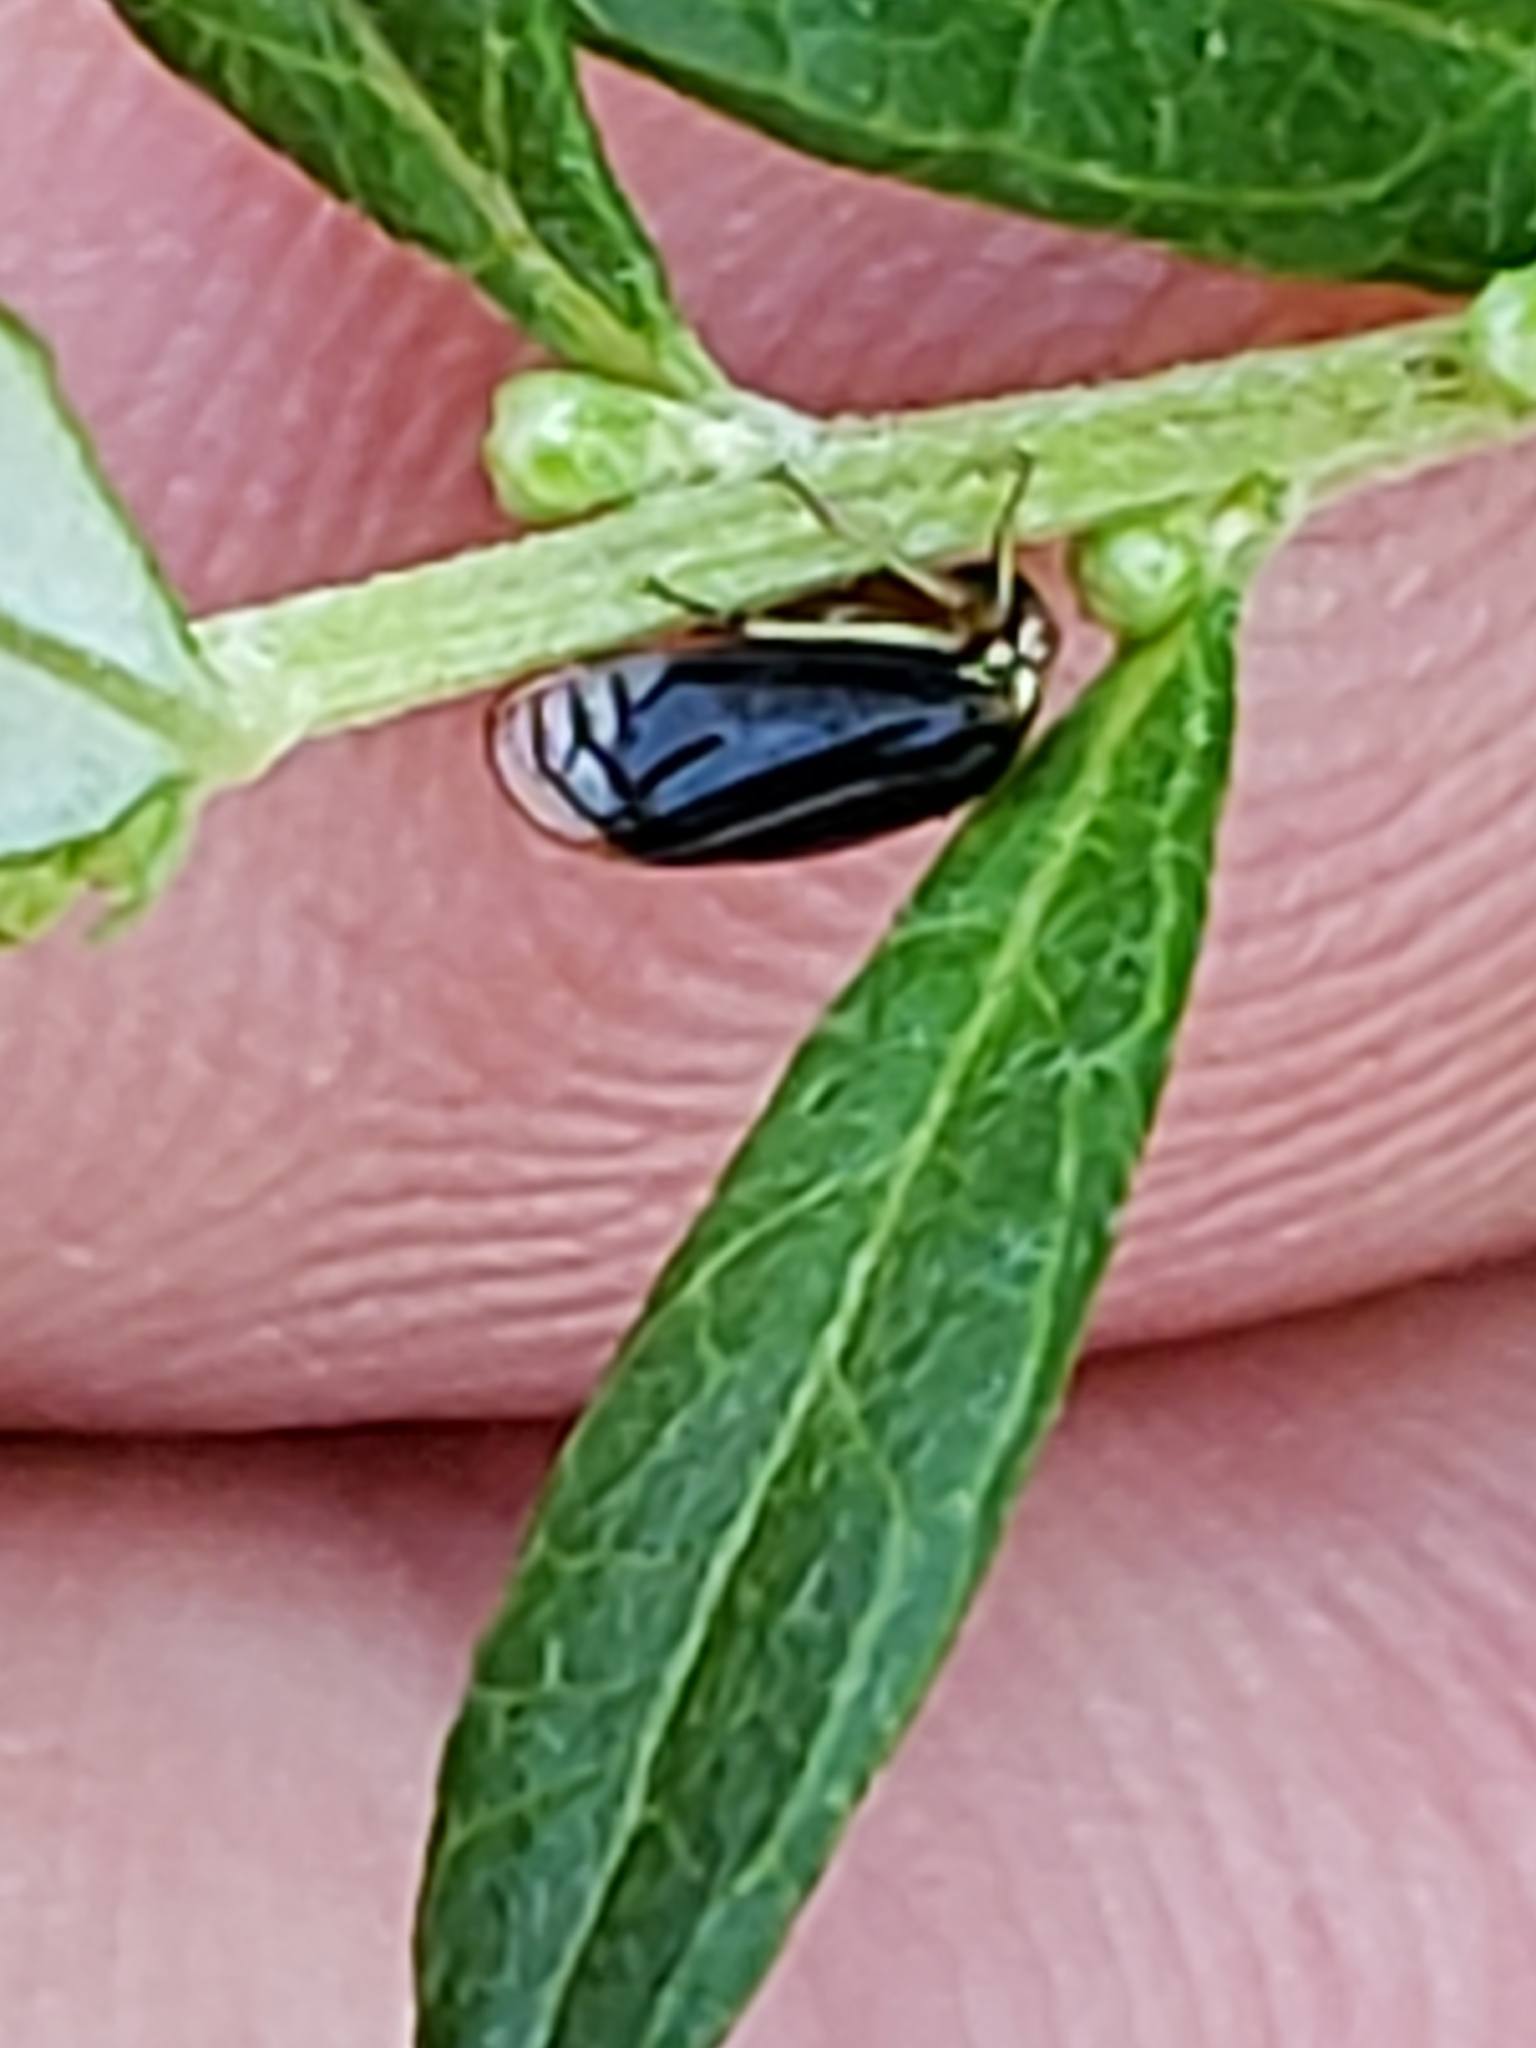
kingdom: Animalia
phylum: Arthropoda
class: Insecta
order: Hemiptera
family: Membracidae
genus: Acutalis
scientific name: Acutalis tartarea
